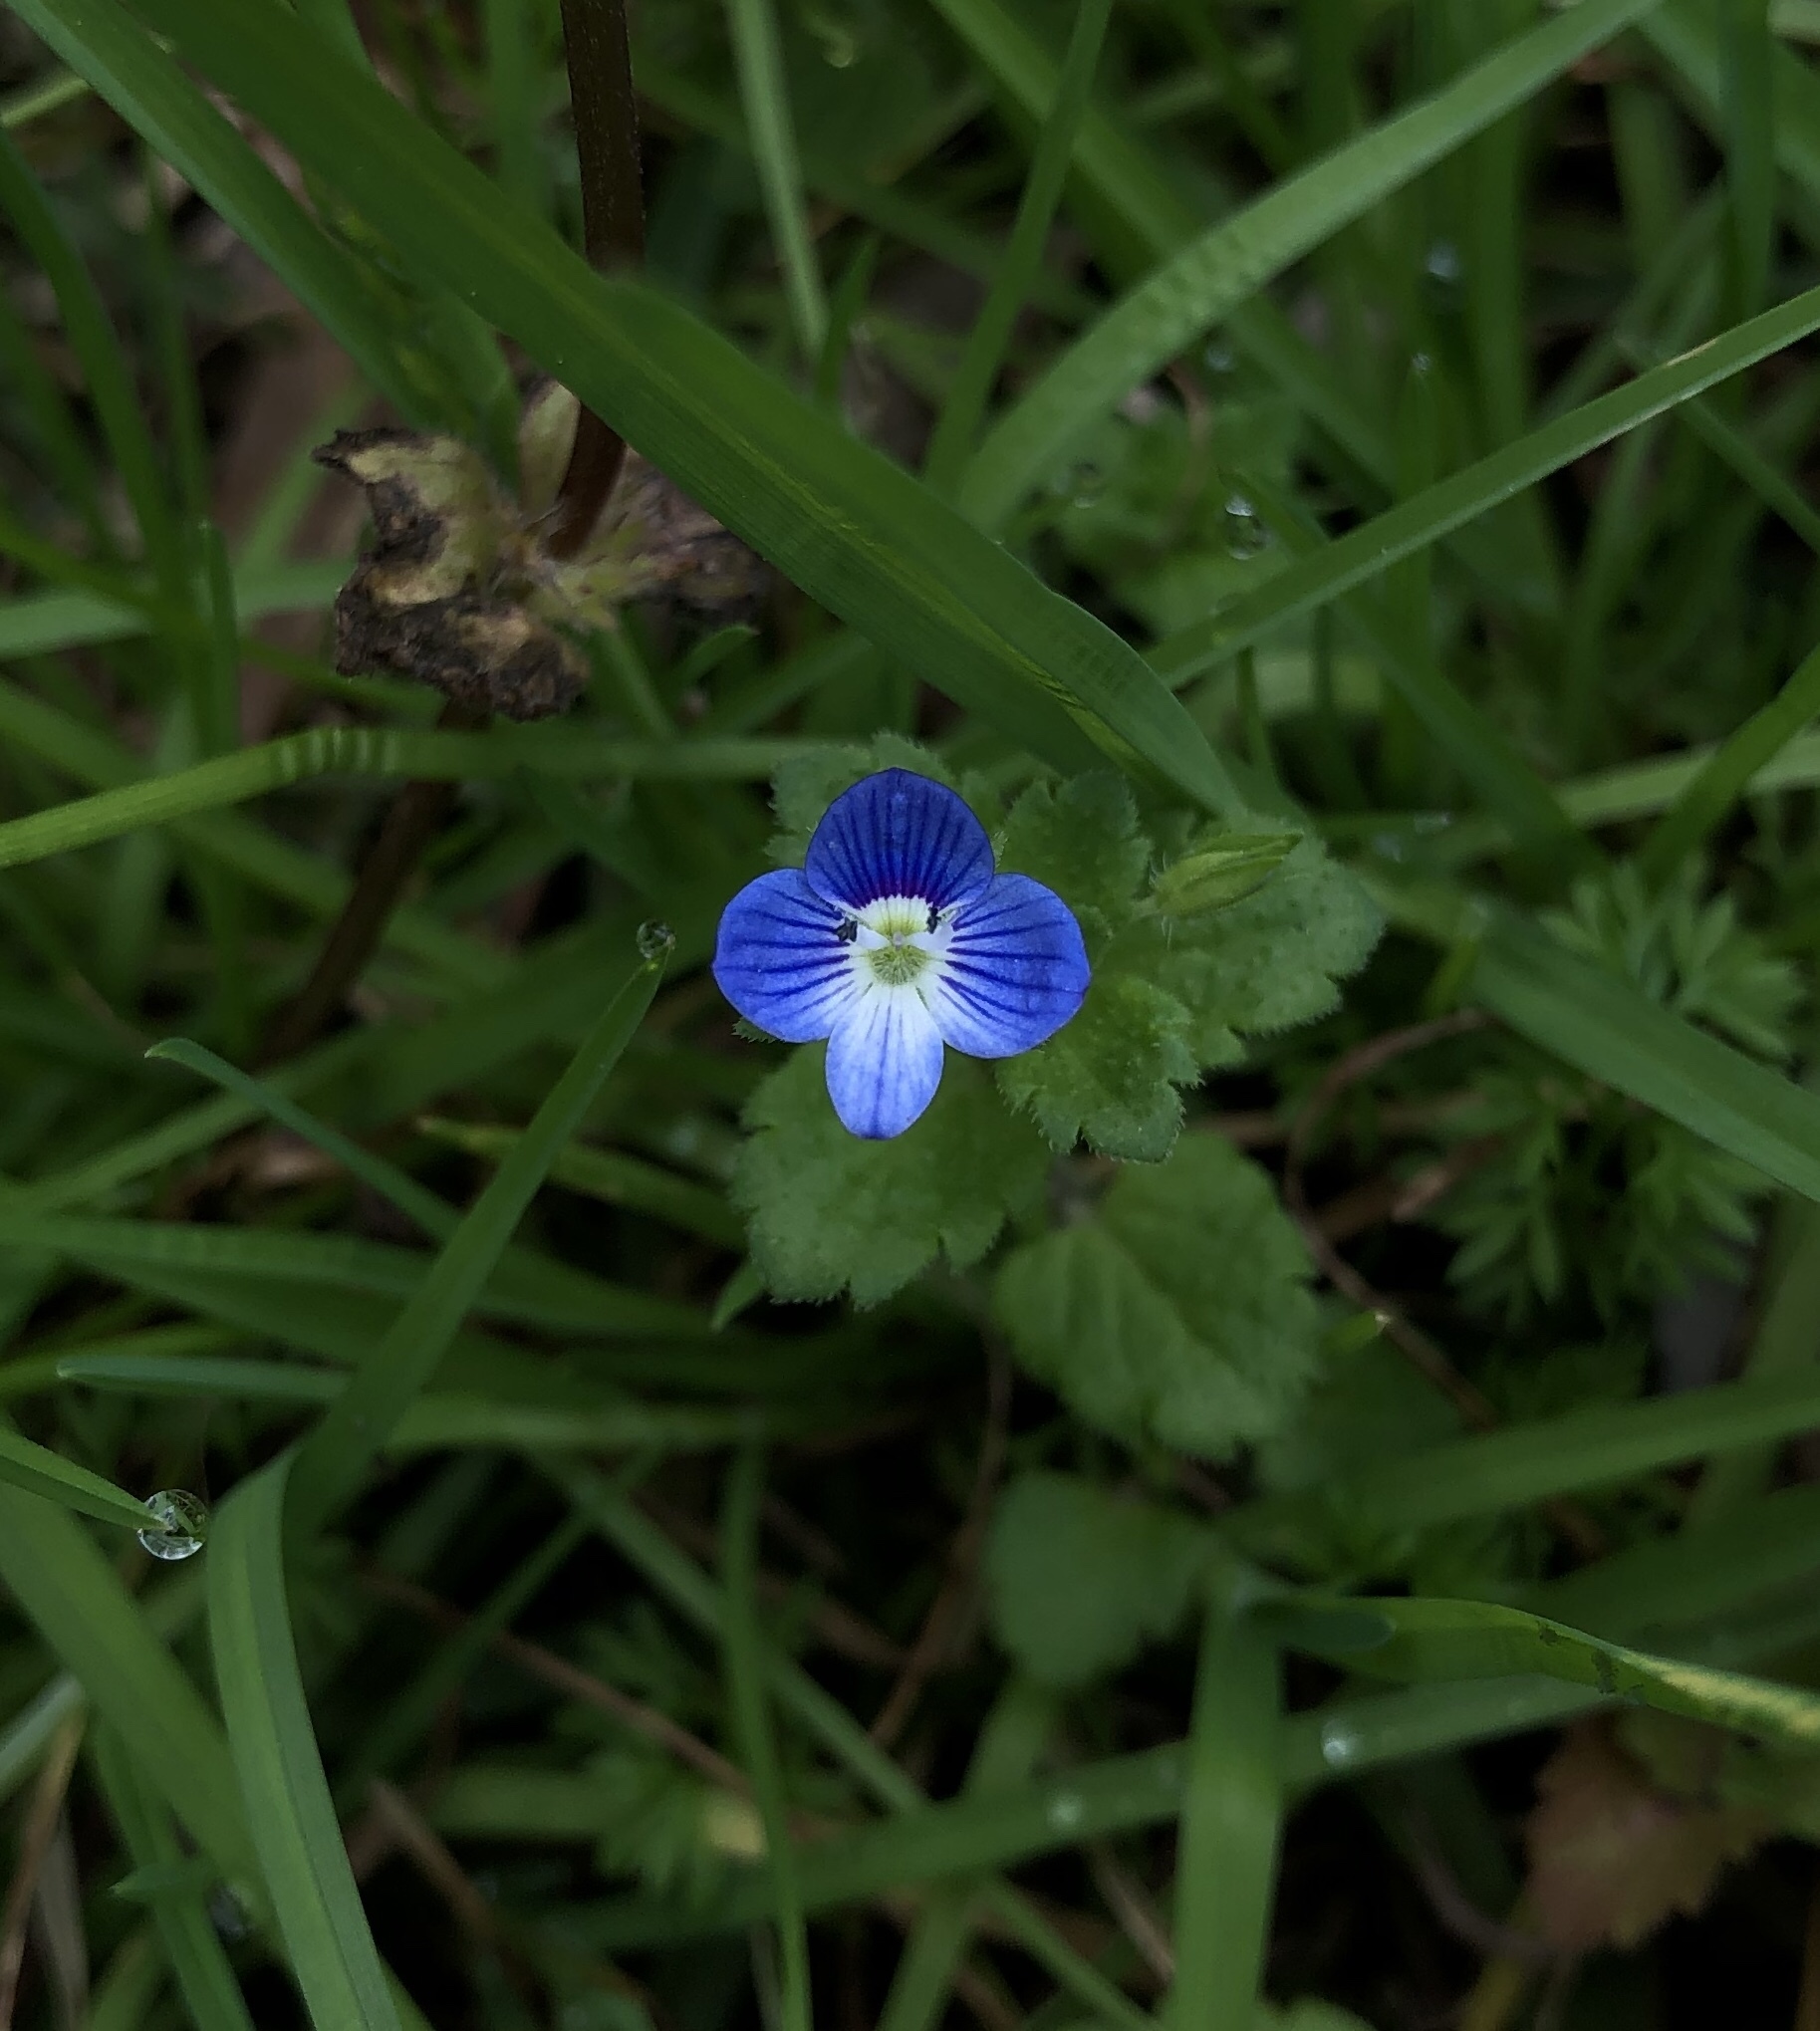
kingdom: Plantae
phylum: Tracheophyta
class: Magnoliopsida
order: Lamiales
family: Plantaginaceae
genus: Veronica
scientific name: Veronica persica
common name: Common field-speedwell
